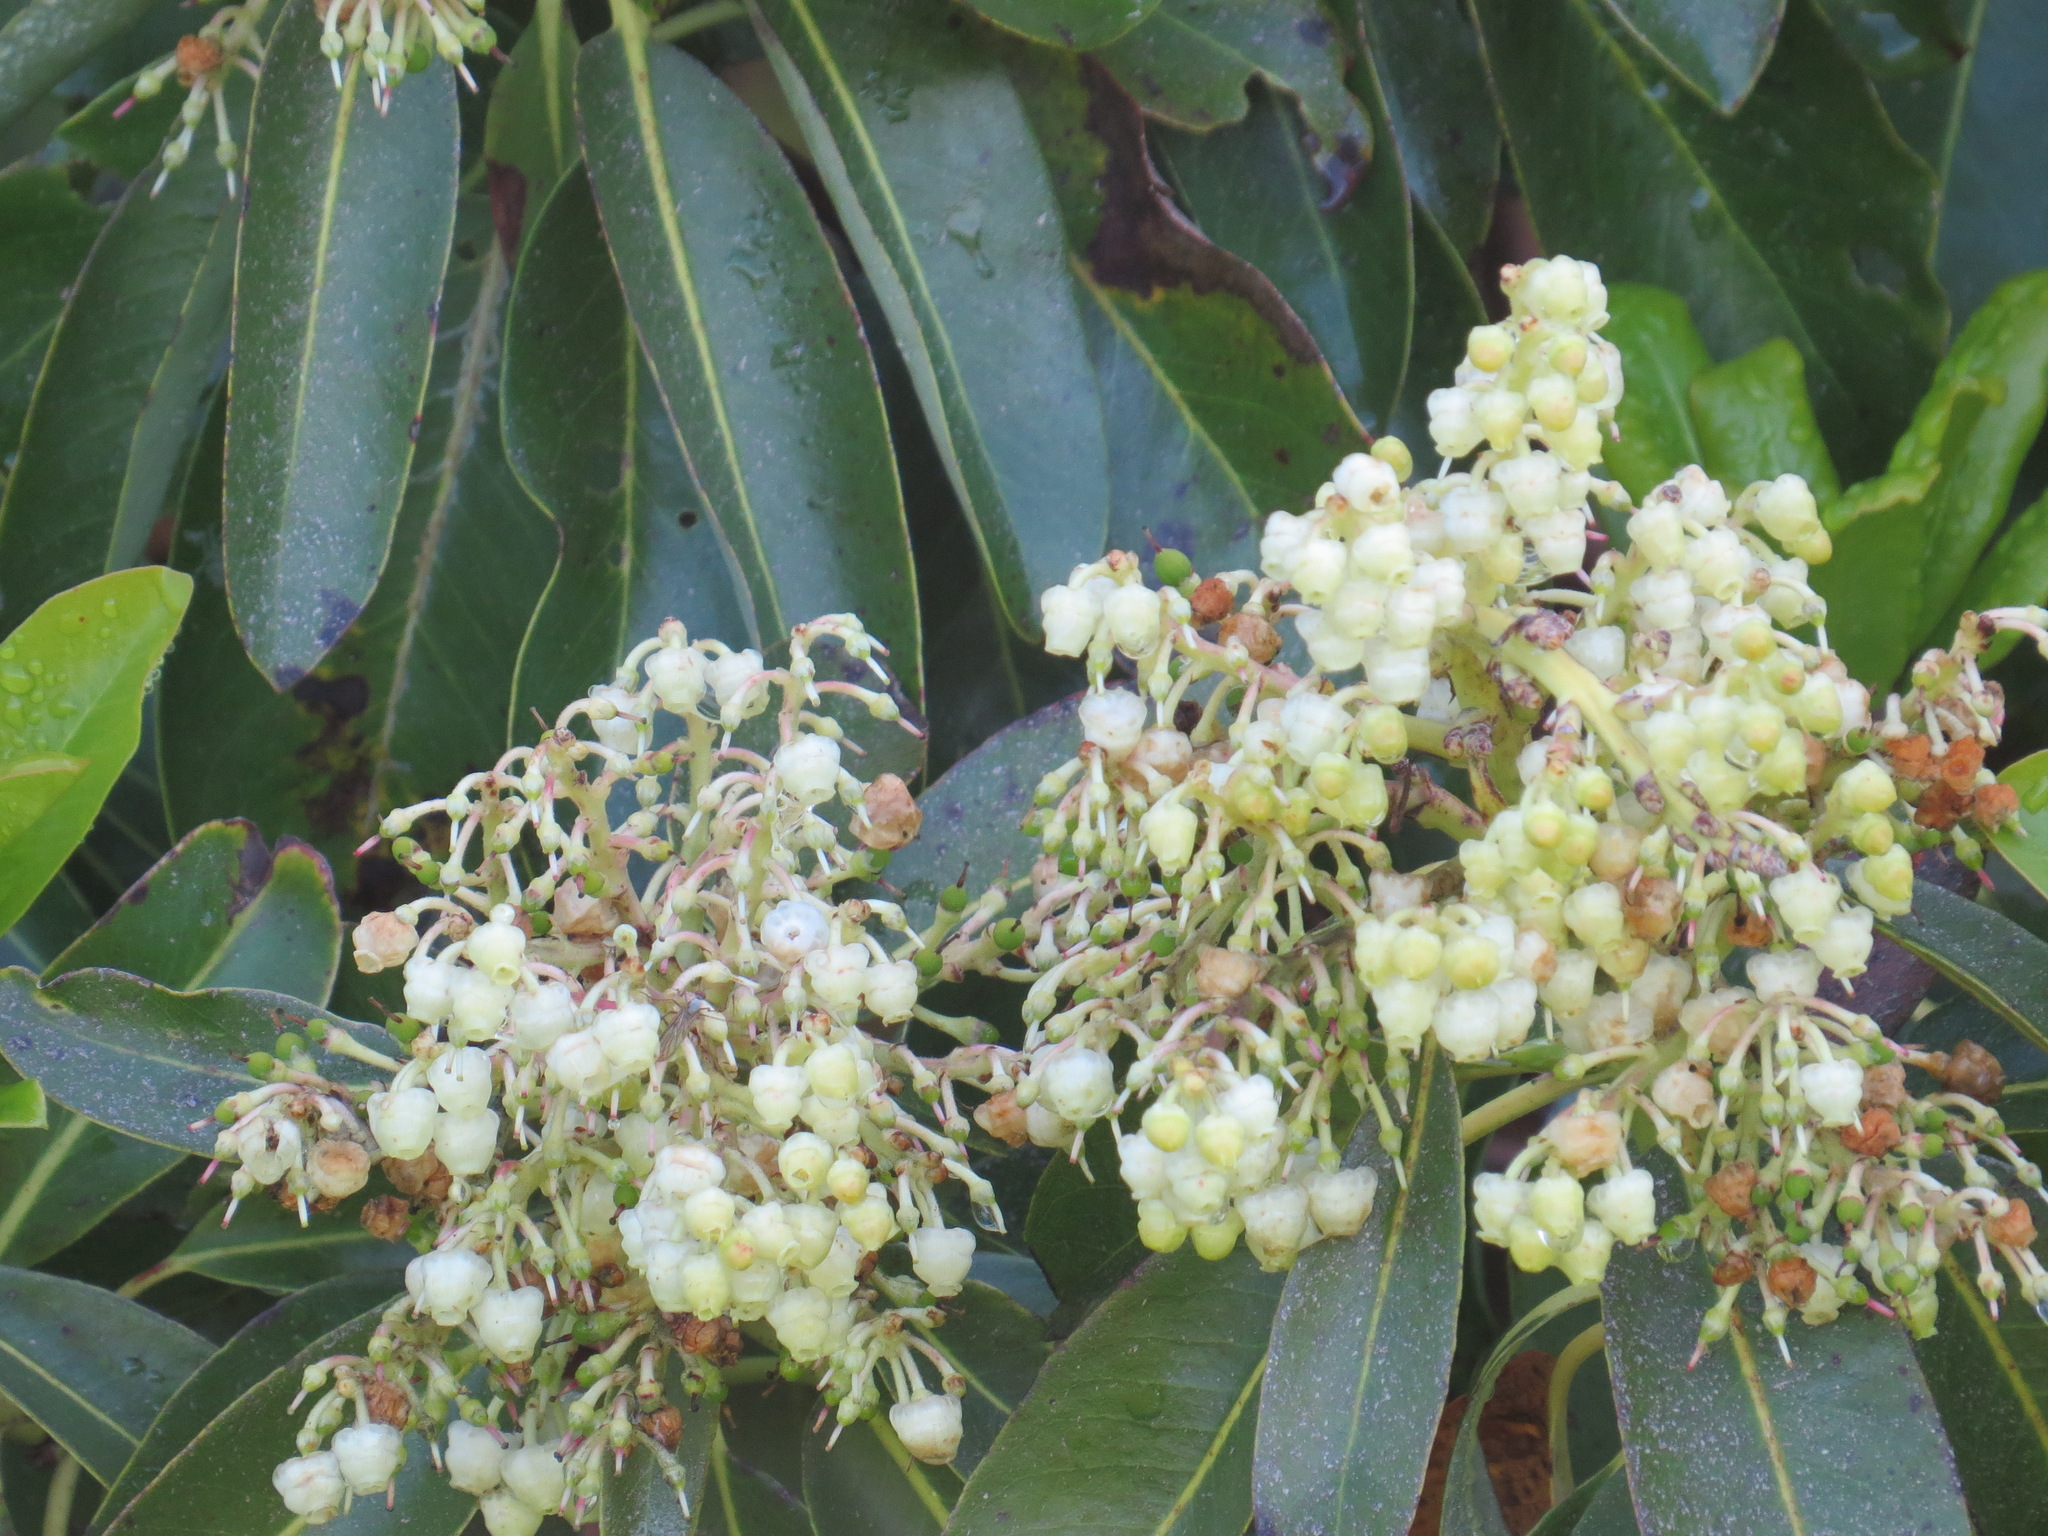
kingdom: Plantae
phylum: Tracheophyta
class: Magnoliopsida
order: Ericales
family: Ericaceae
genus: Arbutus
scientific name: Arbutus menziesii
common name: Pacific madrone
